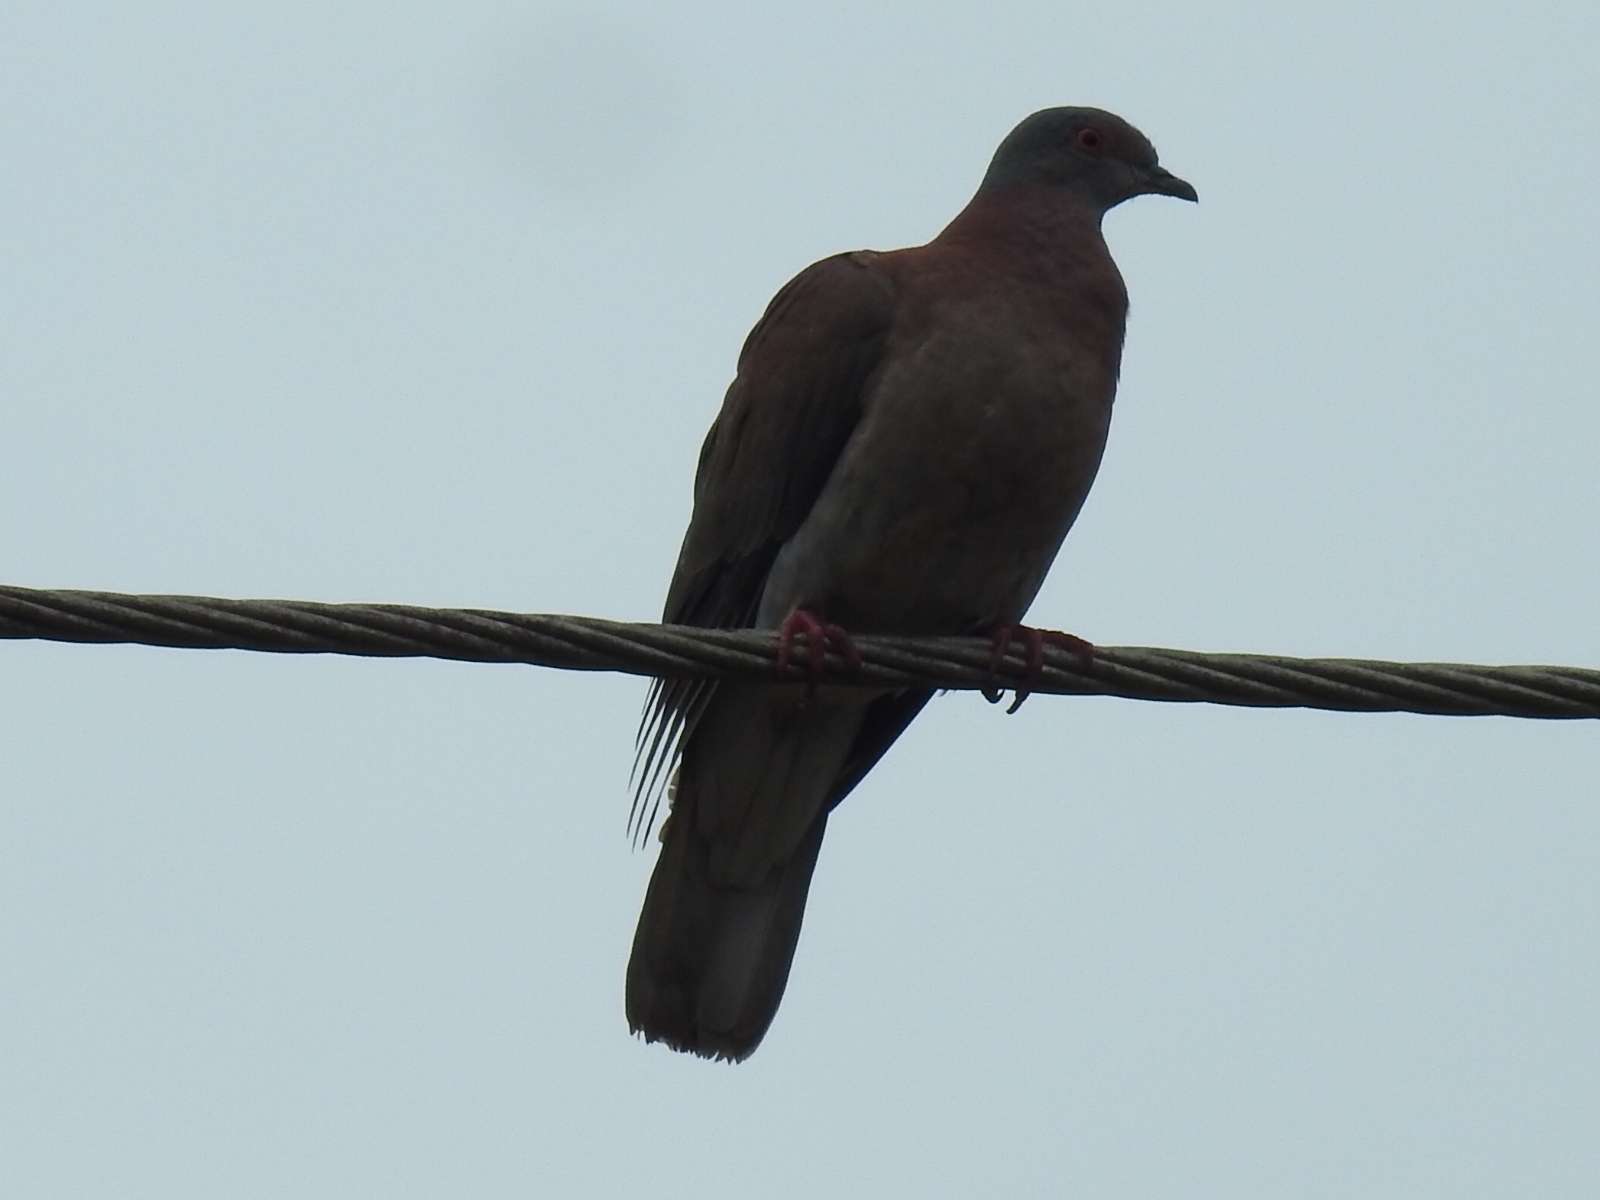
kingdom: Animalia
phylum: Chordata
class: Aves
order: Columbiformes
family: Columbidae
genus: Patagioenas
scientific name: Patagioenas cayennensis
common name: Pale-vented pigeon
